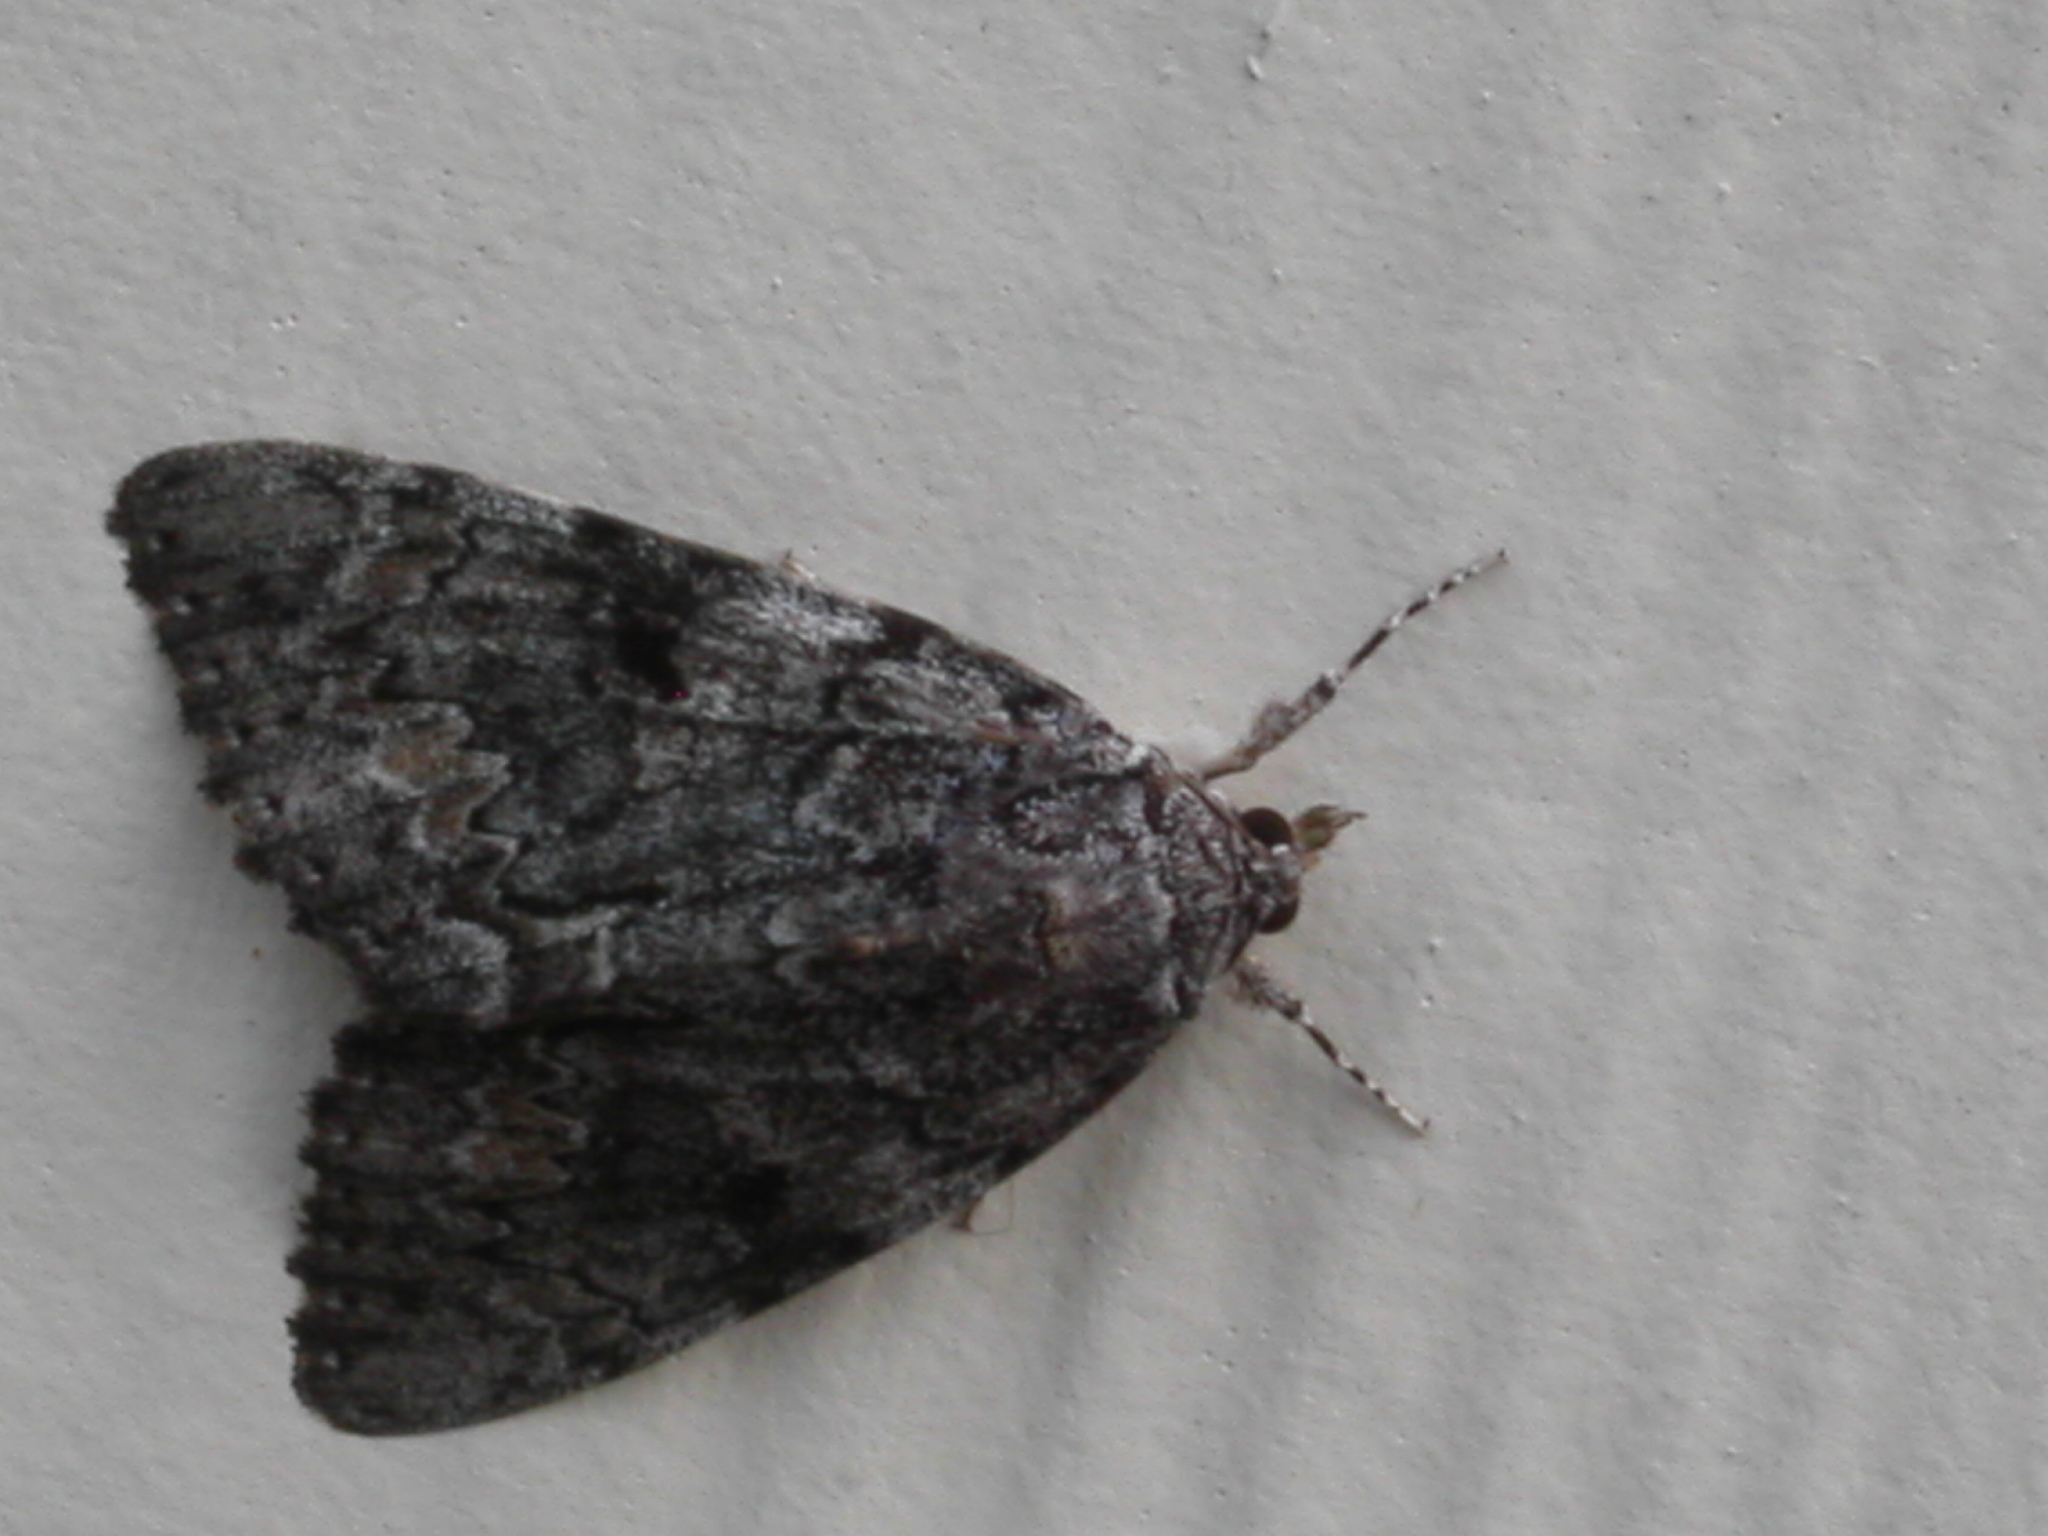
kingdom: Animalia
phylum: Arthropoda
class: Insecta
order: Lepidoptera
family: Erebidae
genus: Catocala
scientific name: Catocala palaeogama
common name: Oldwife underwing
